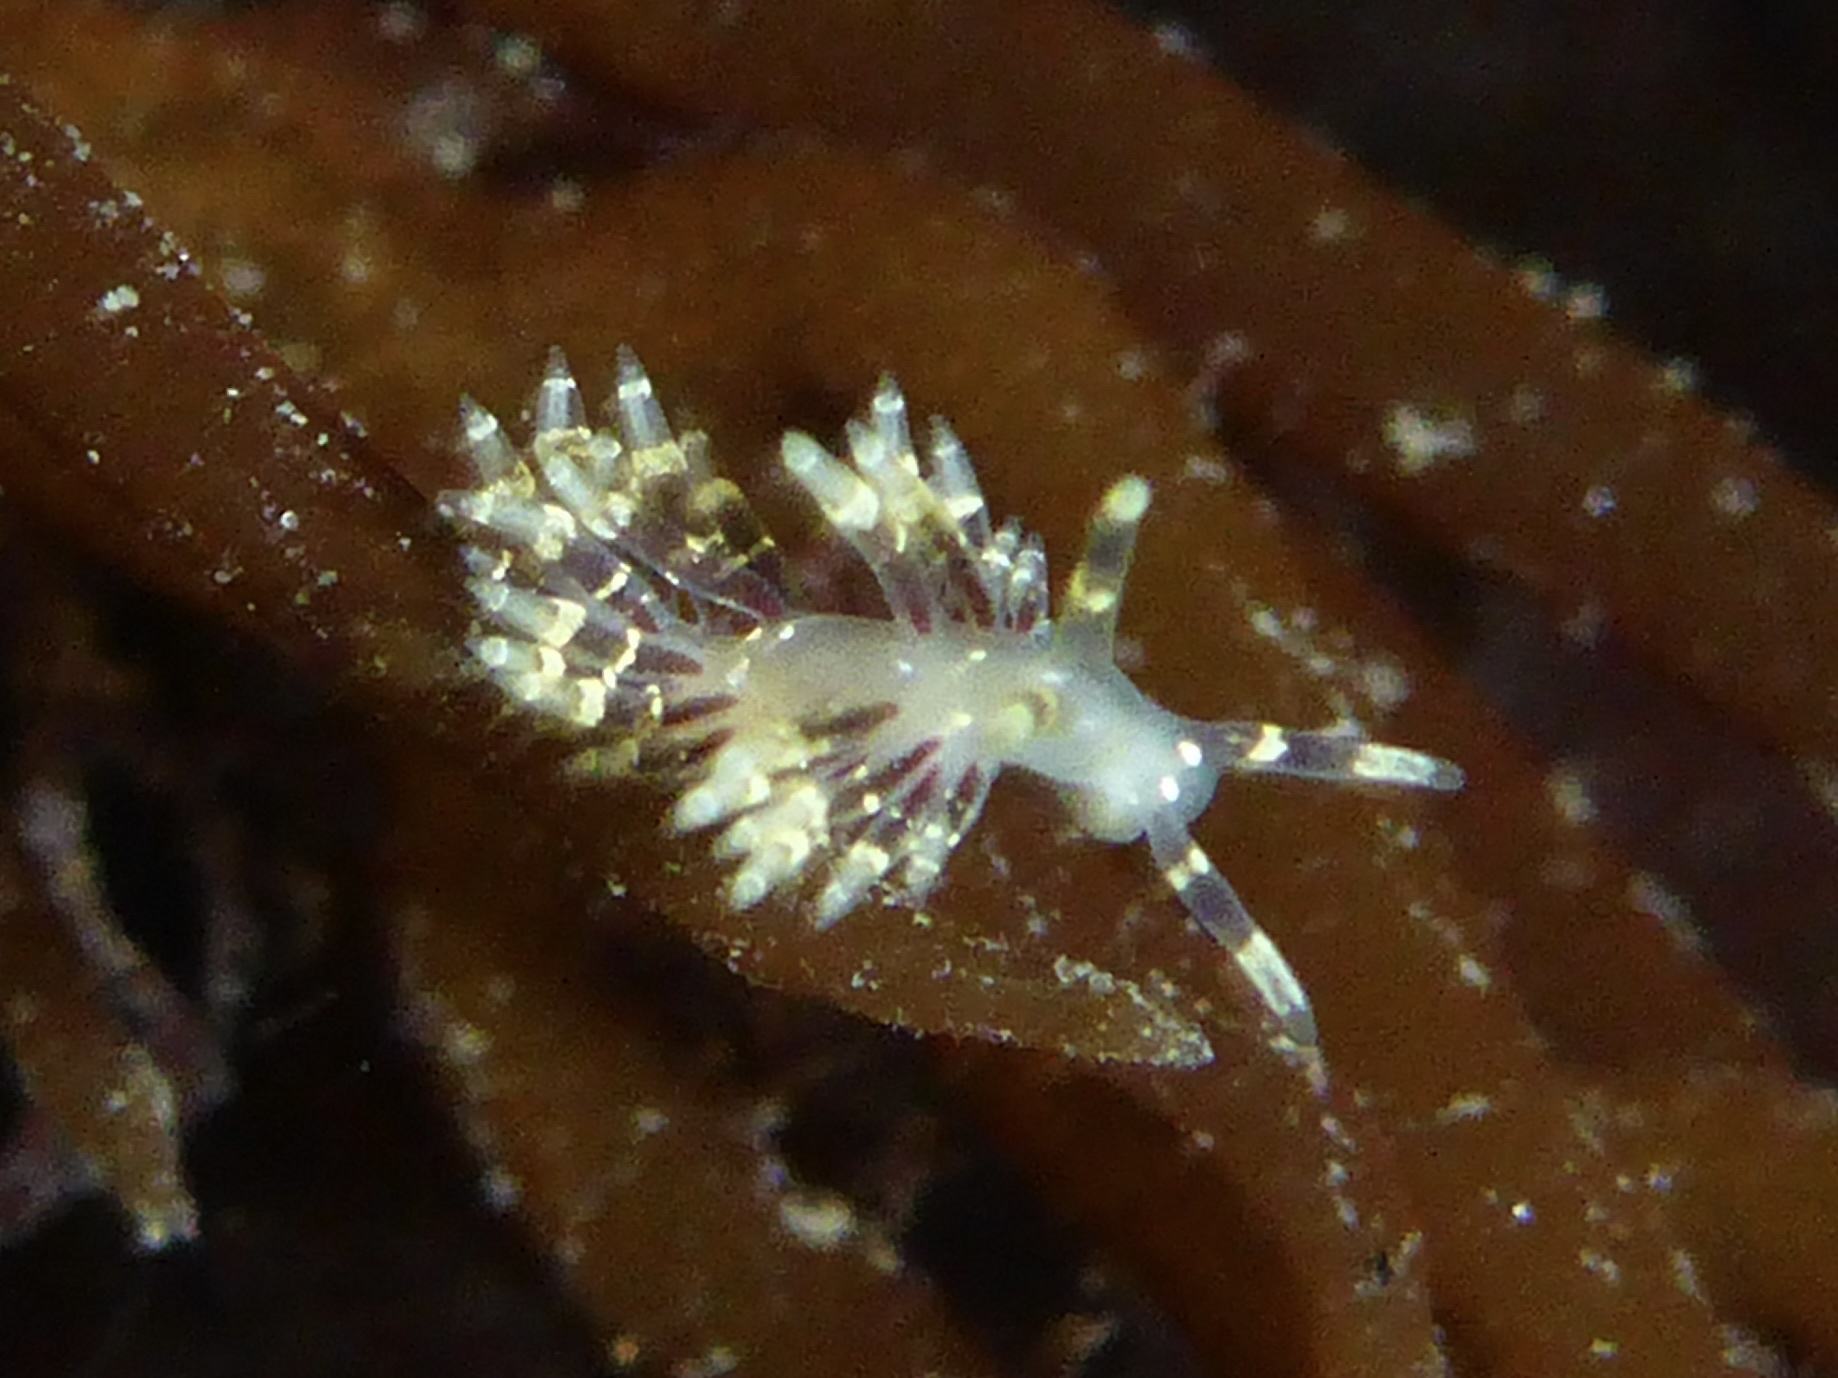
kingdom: Animalia
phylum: Mollusca
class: Gastropoda
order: Nudibranchia
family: Abronicidae
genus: Abronica
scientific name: Abronica abronia
